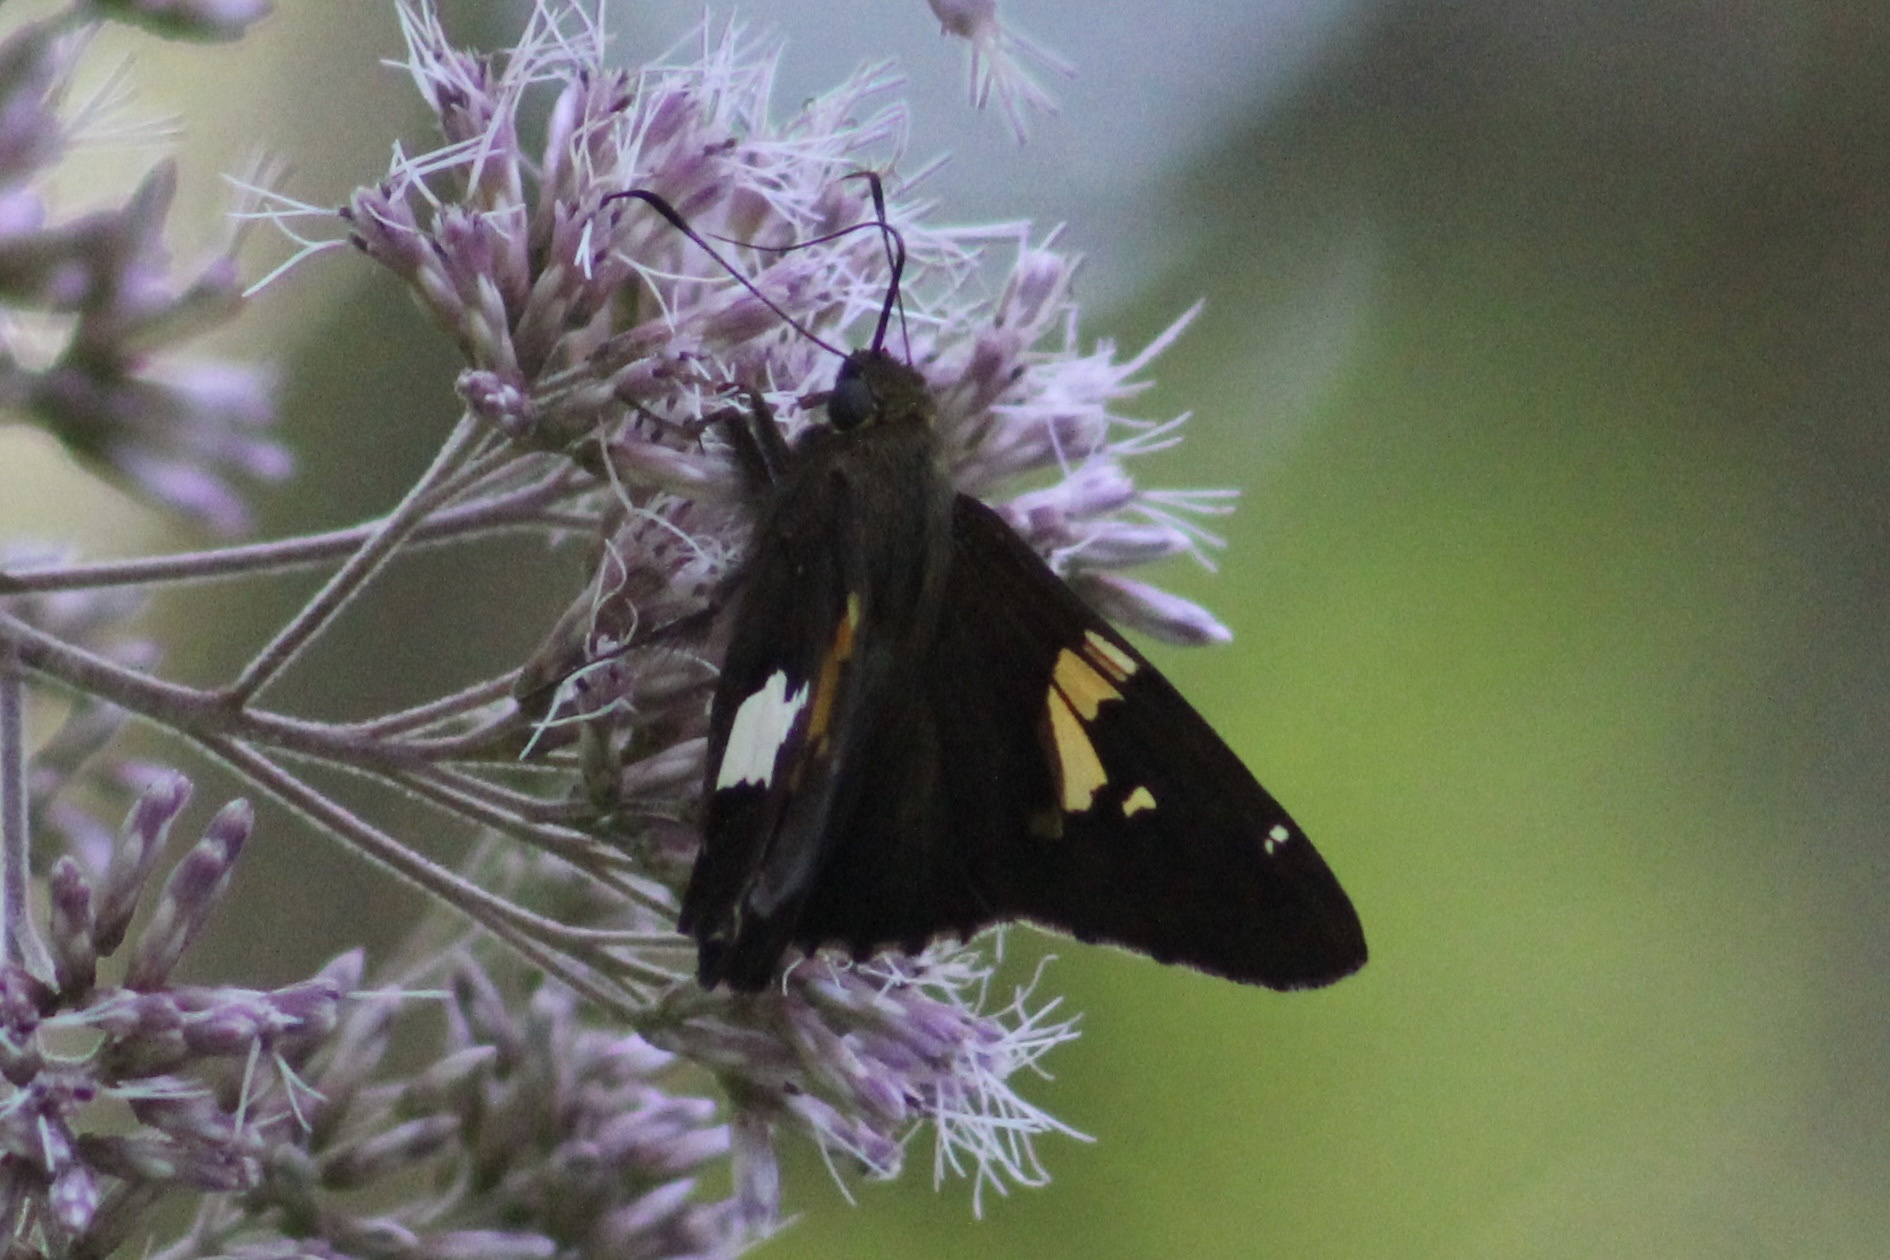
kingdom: Animalia
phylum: Arthropoda
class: Insecta
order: Lepidoptera
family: Hesperiidae
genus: Epargyreus
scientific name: Epargyreus clarus
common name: Silver-spotted skipper
